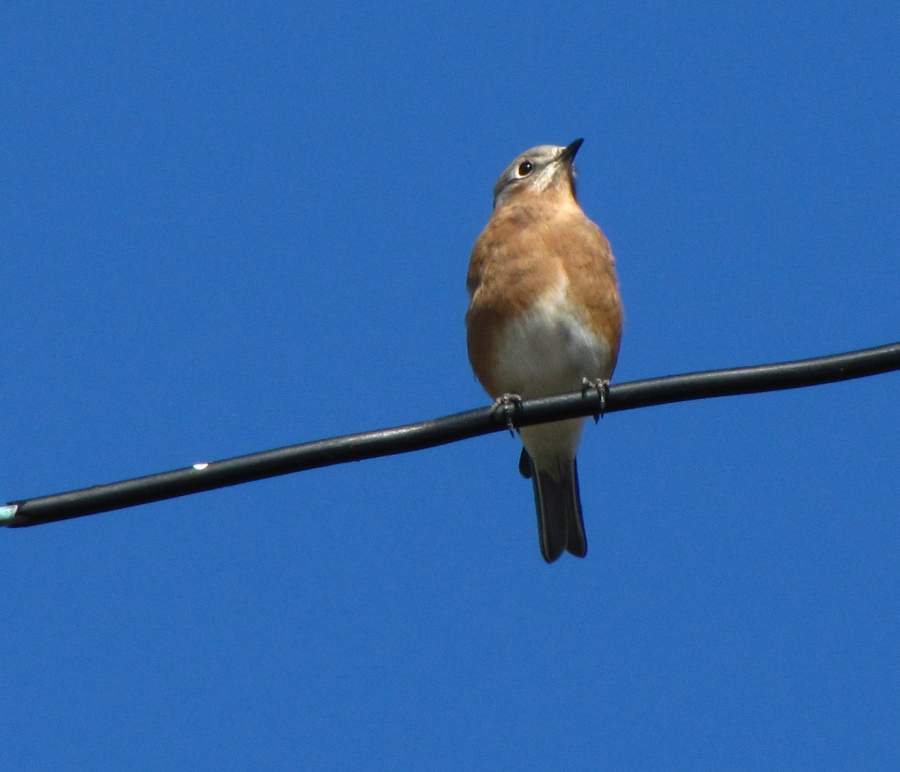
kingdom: Animalia
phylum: Chordata
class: Aves
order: Passeriformes
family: Turdidae
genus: Sialia
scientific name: Sialia sialis
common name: Eastern bluebird
